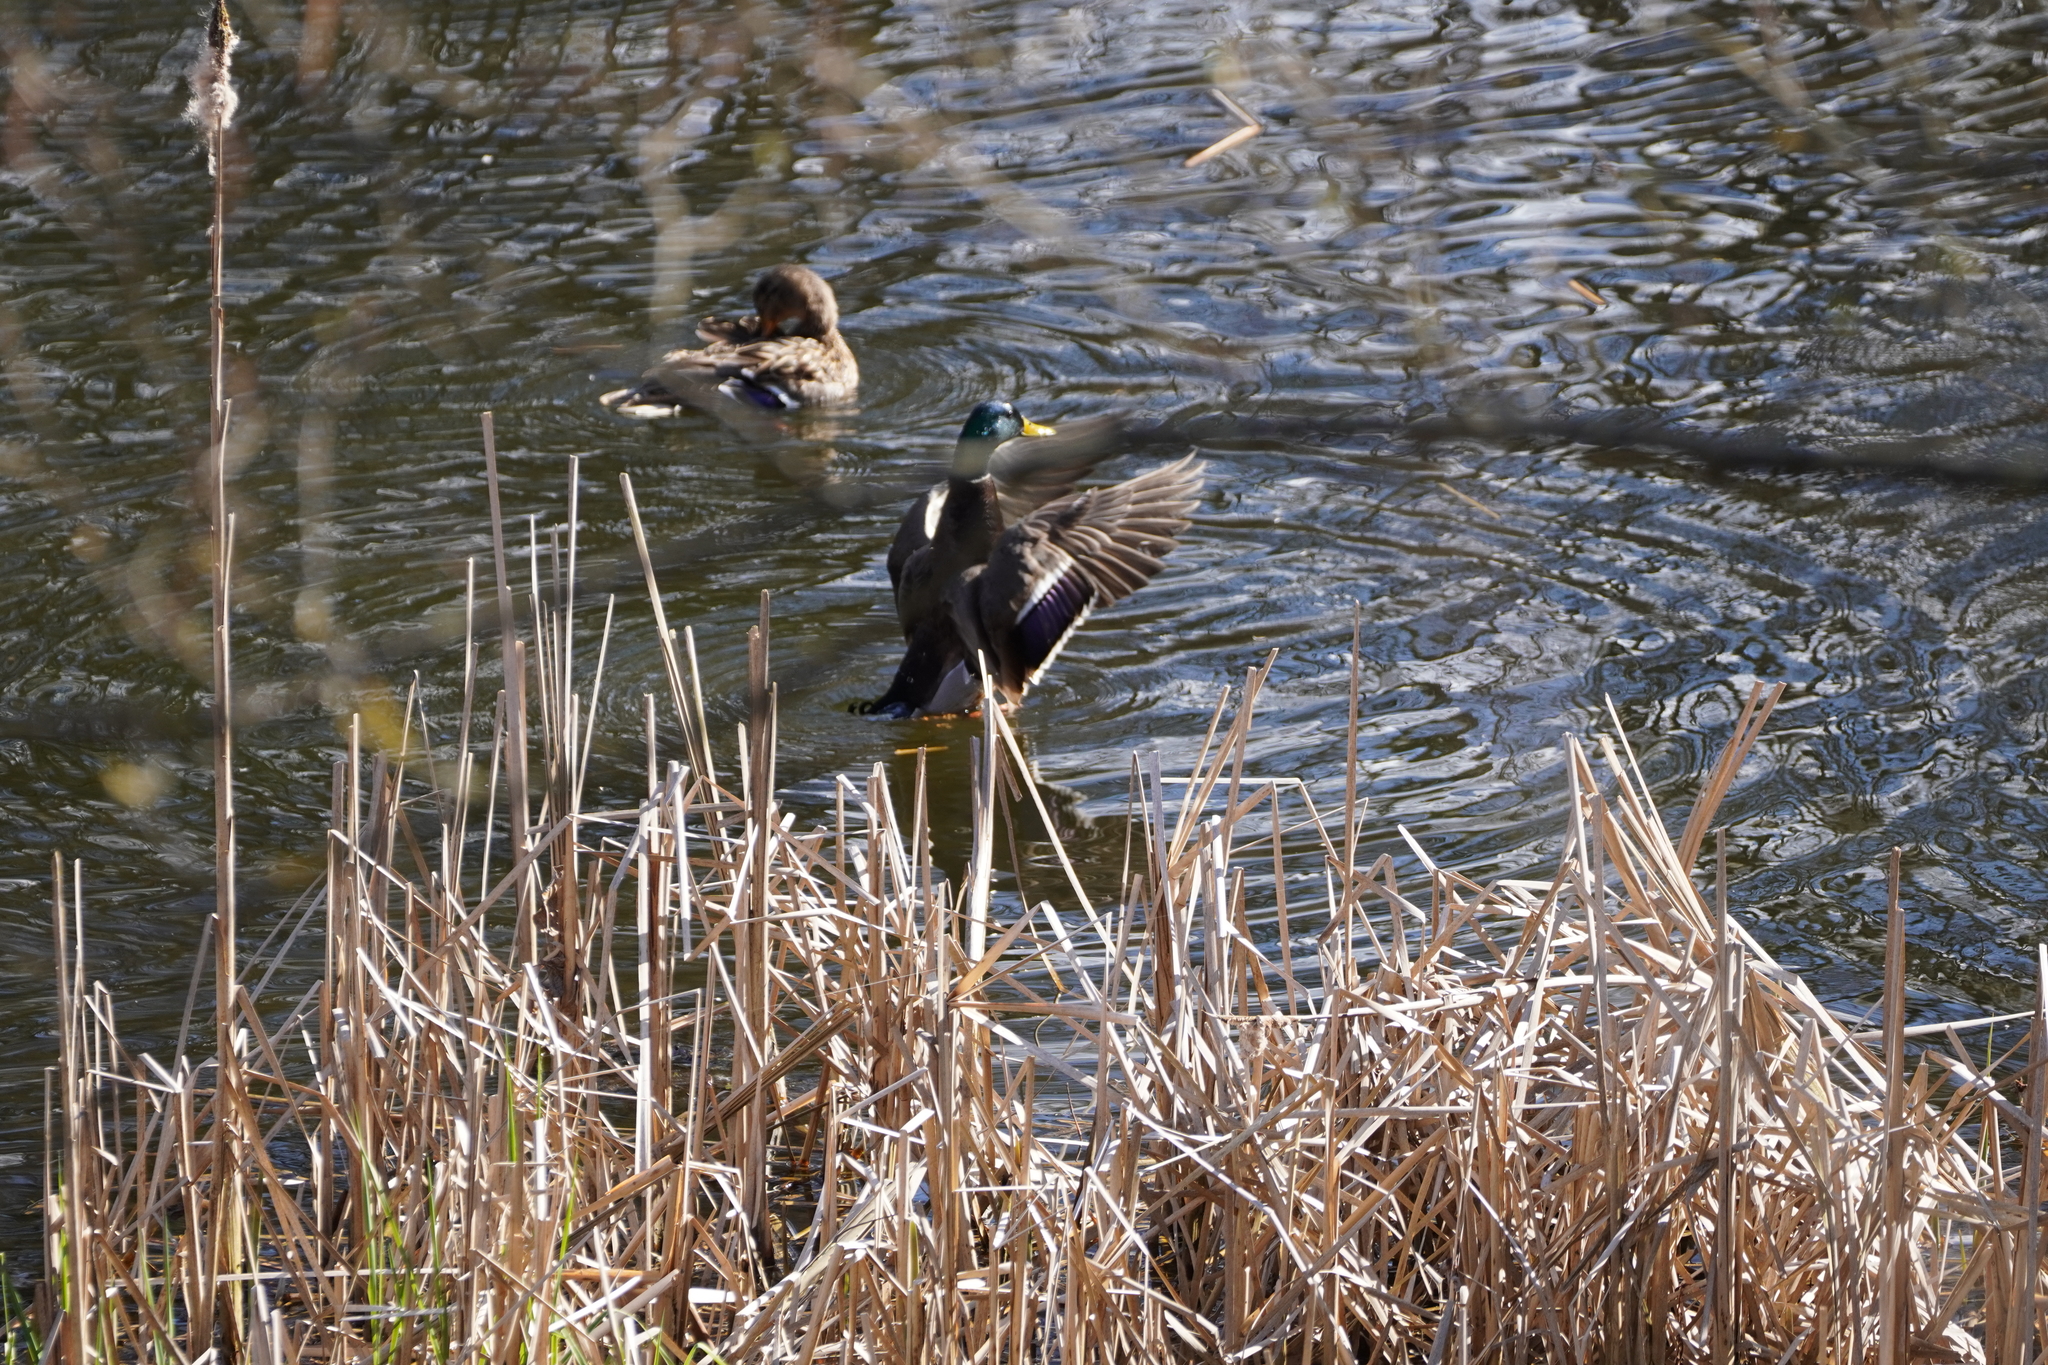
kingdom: Animalia
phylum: Chordata
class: Aves
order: Anseriformes
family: Anatidae
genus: Anas
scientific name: Anas platyrhynchos
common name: Mallard
